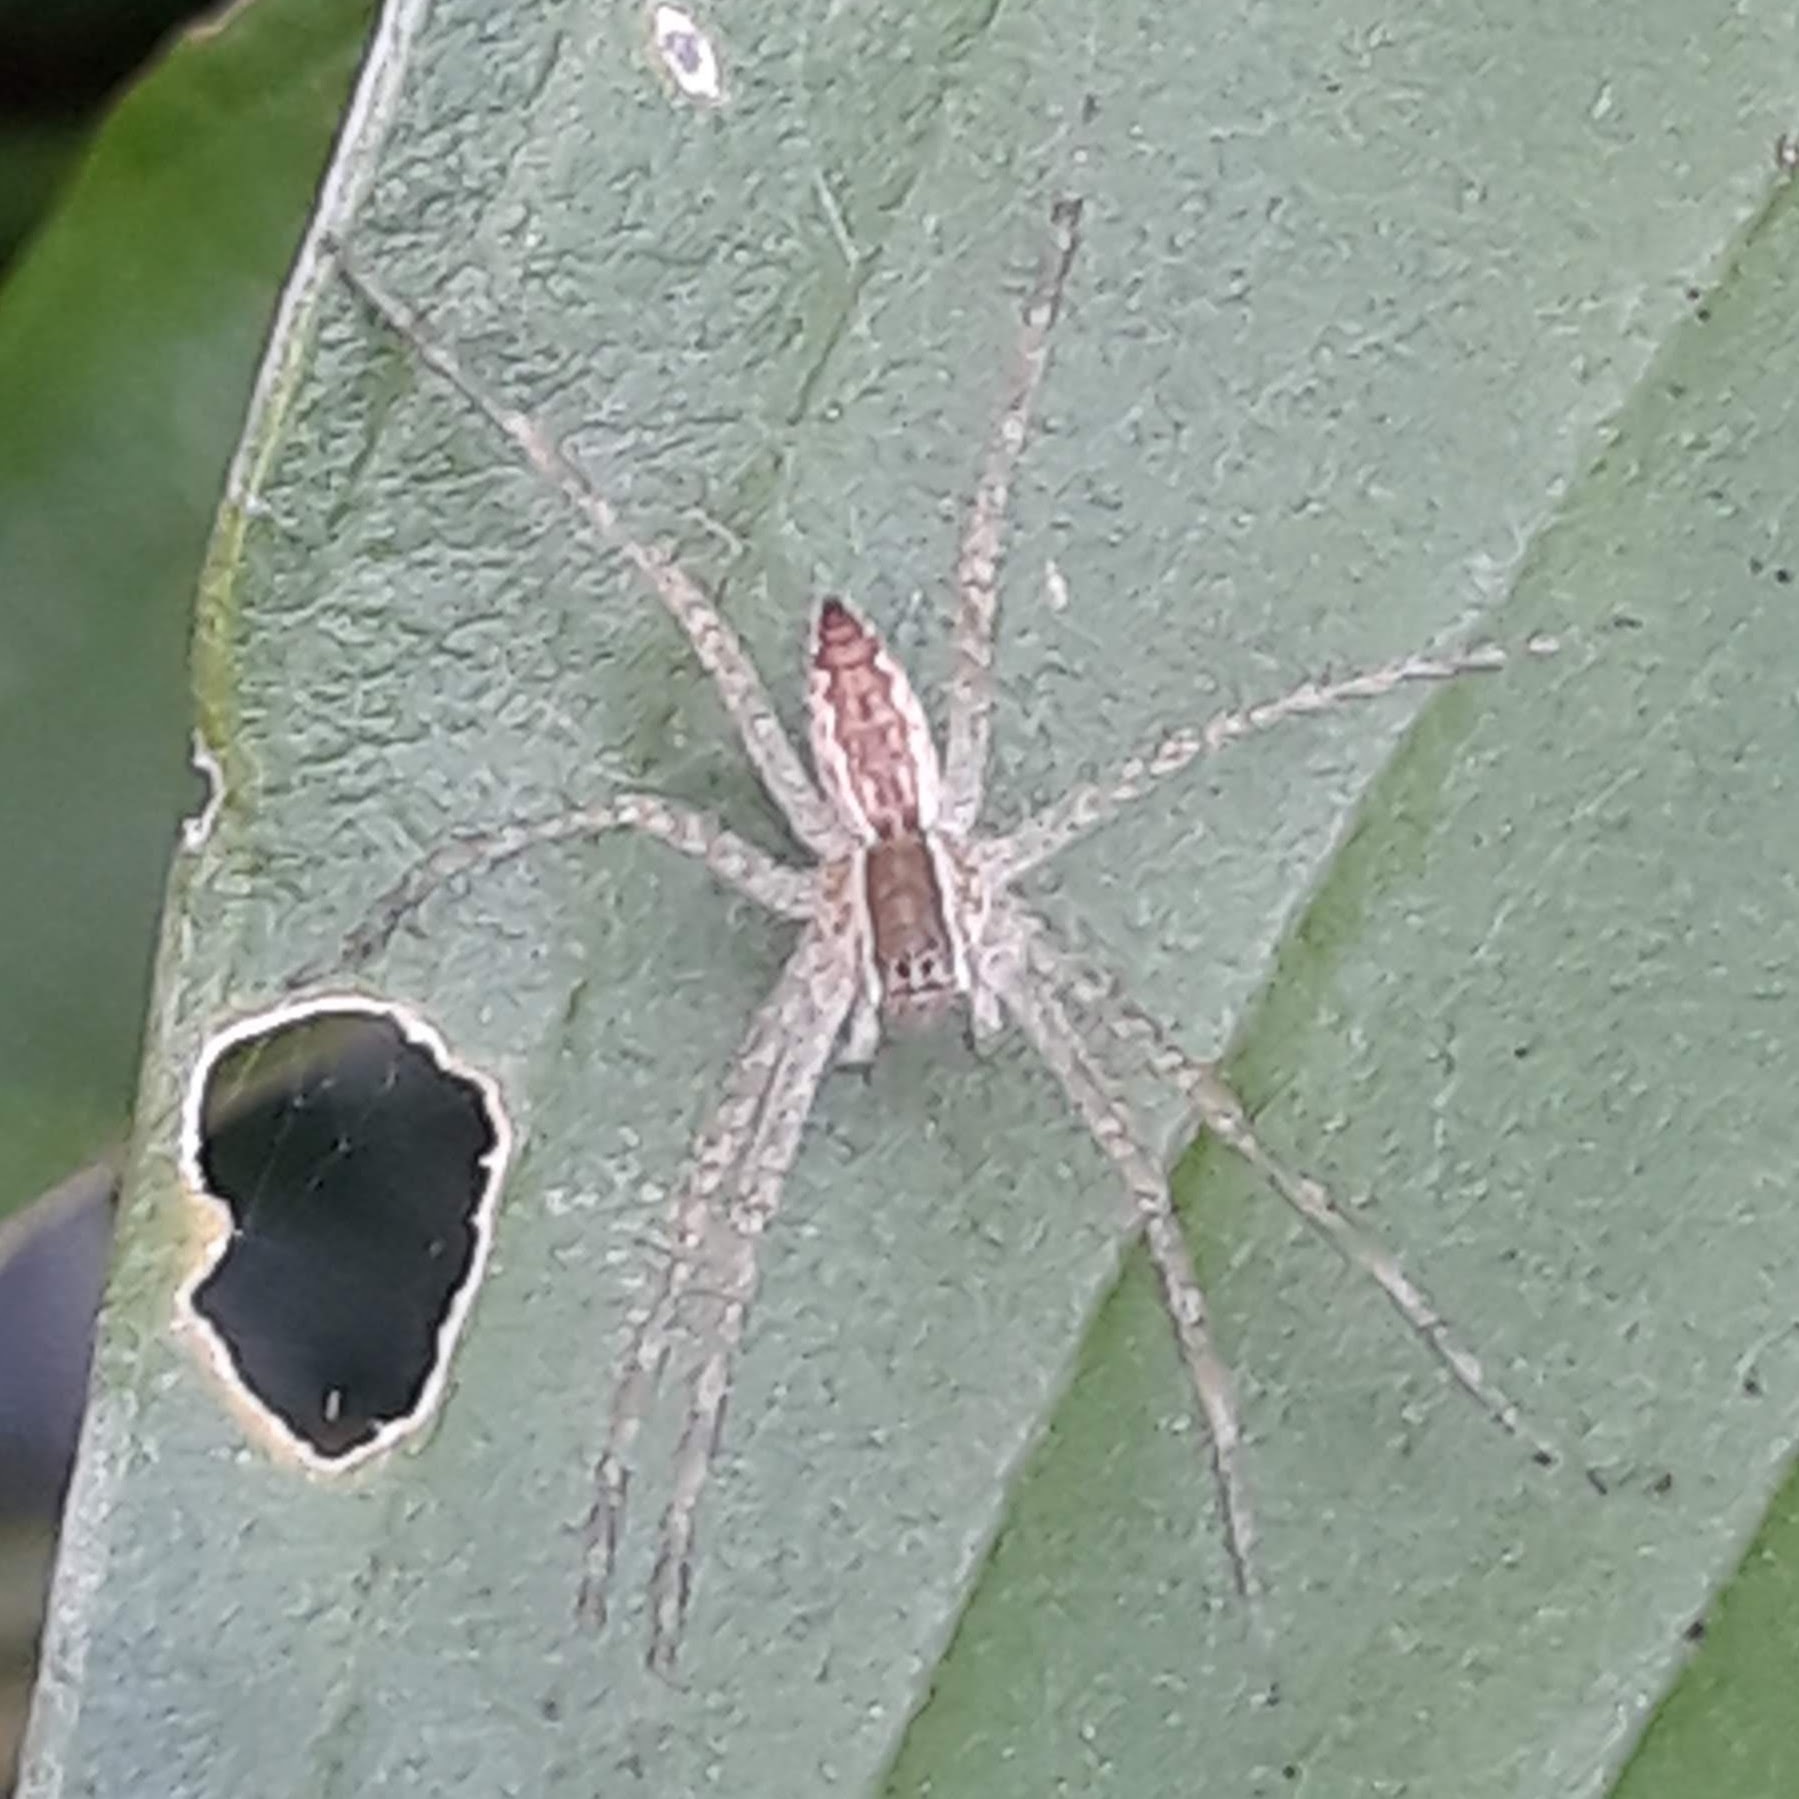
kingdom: Animalia
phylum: Arthropoda
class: Arachnida
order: Araneae
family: Pisauridae
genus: Pisaurina
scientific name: Pisaurina mira
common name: American nursery web spider
